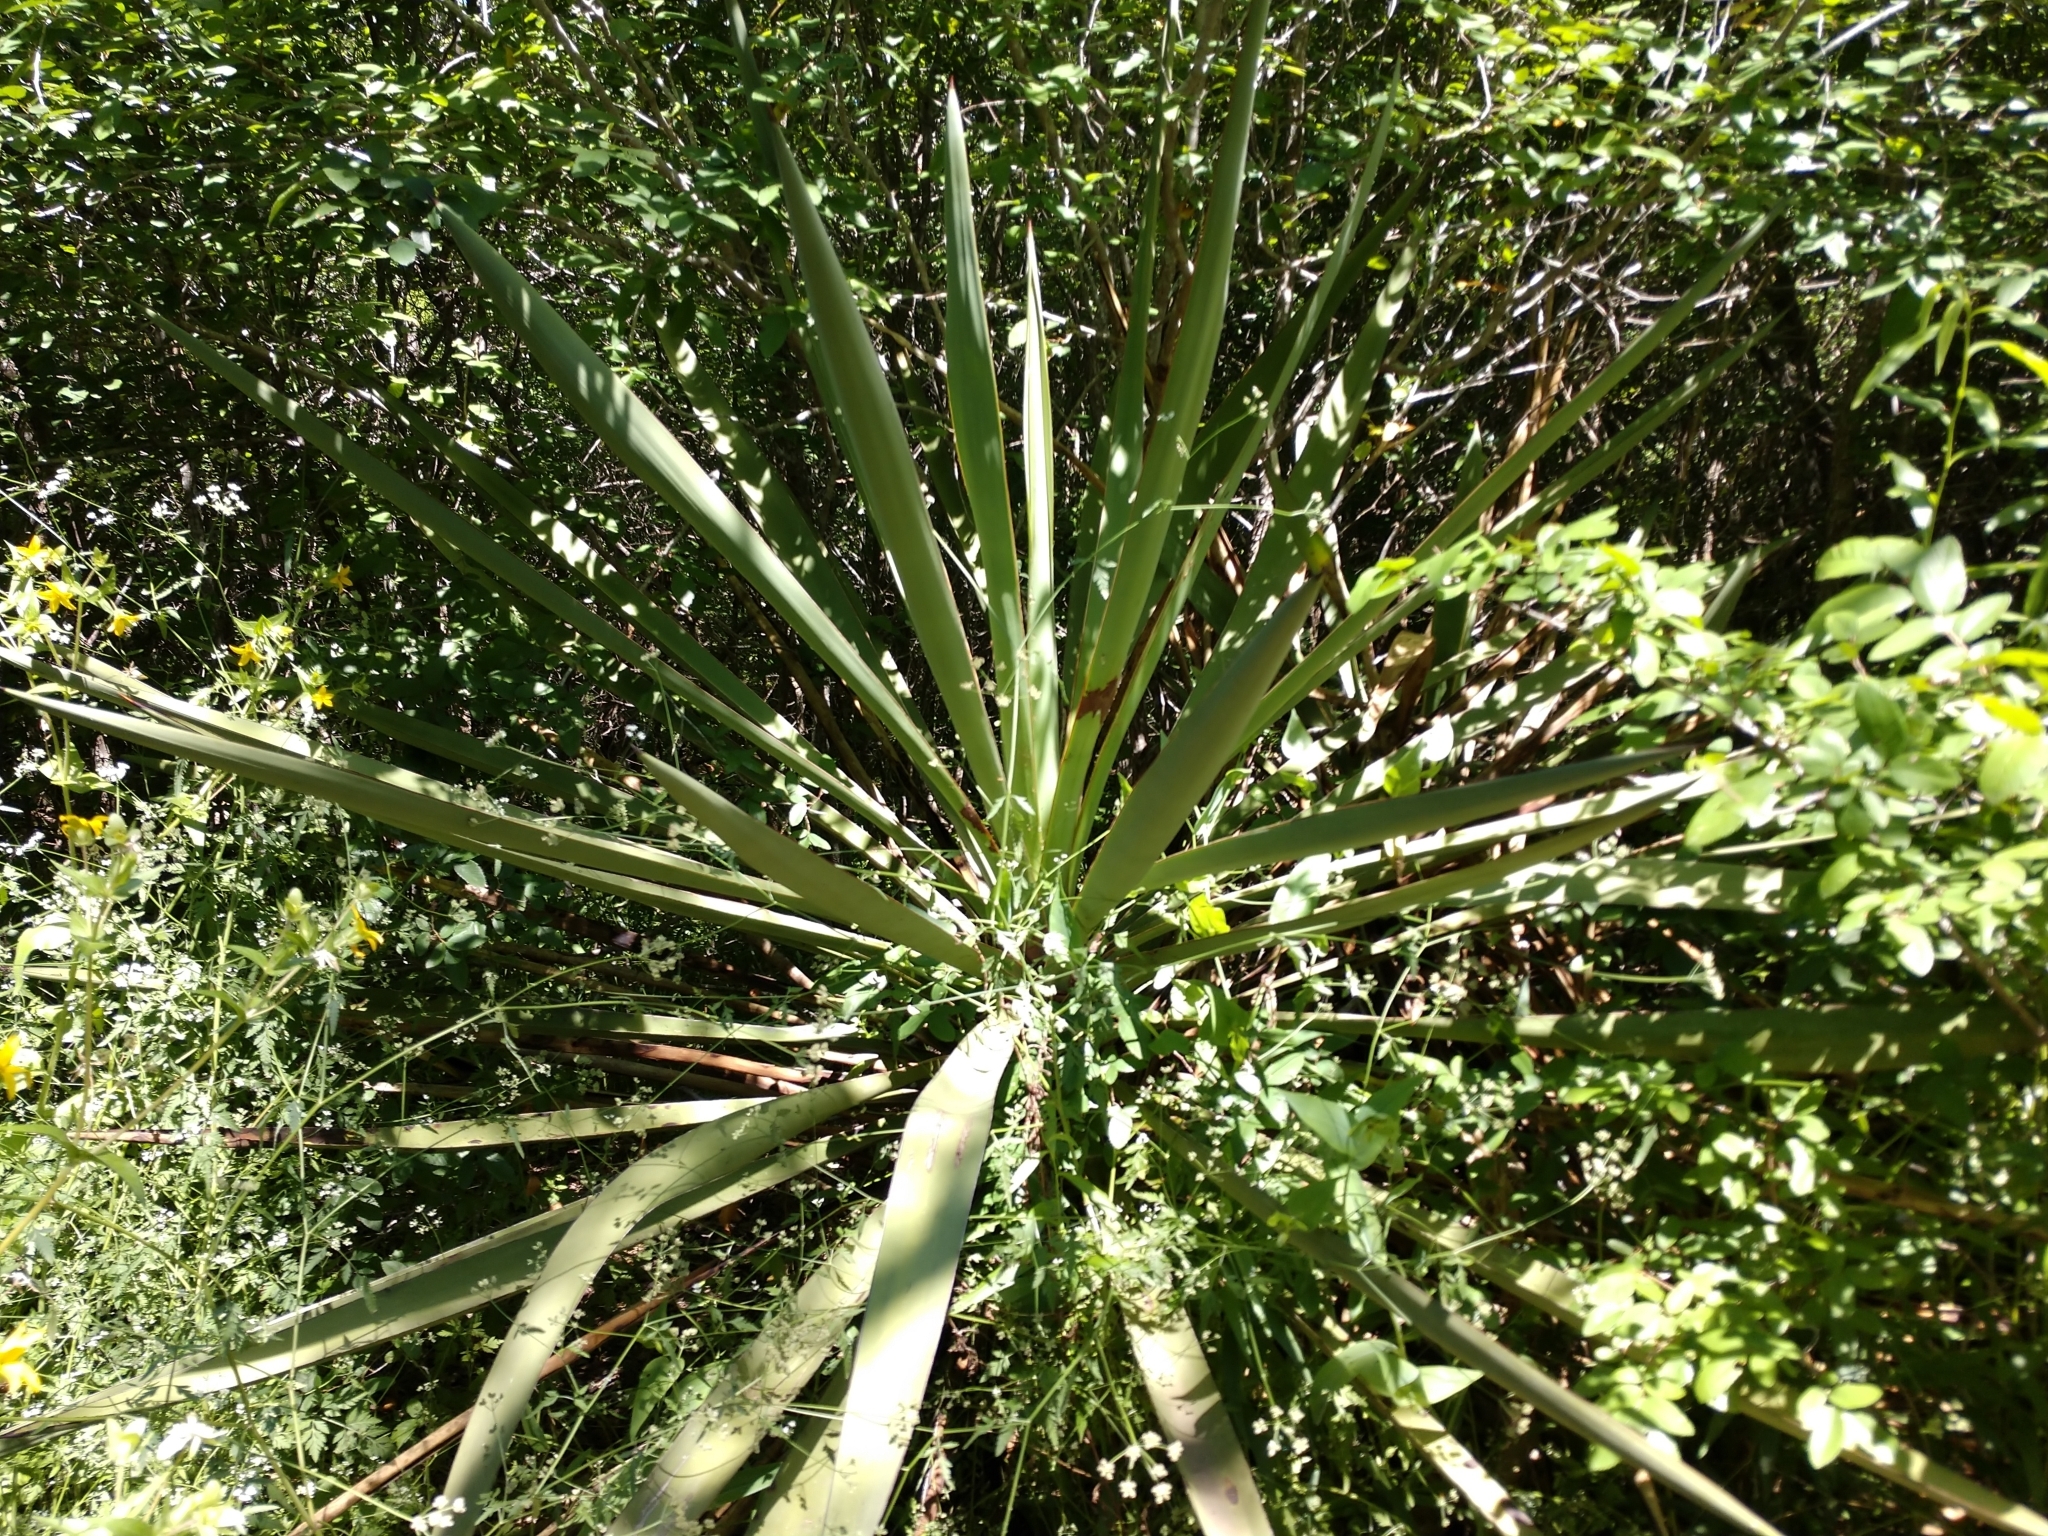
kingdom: Plantae
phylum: Tracheophyta
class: Liliopsida
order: Asparagales
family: Asparagaceae
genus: Yucca
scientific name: Yucca treculiana
